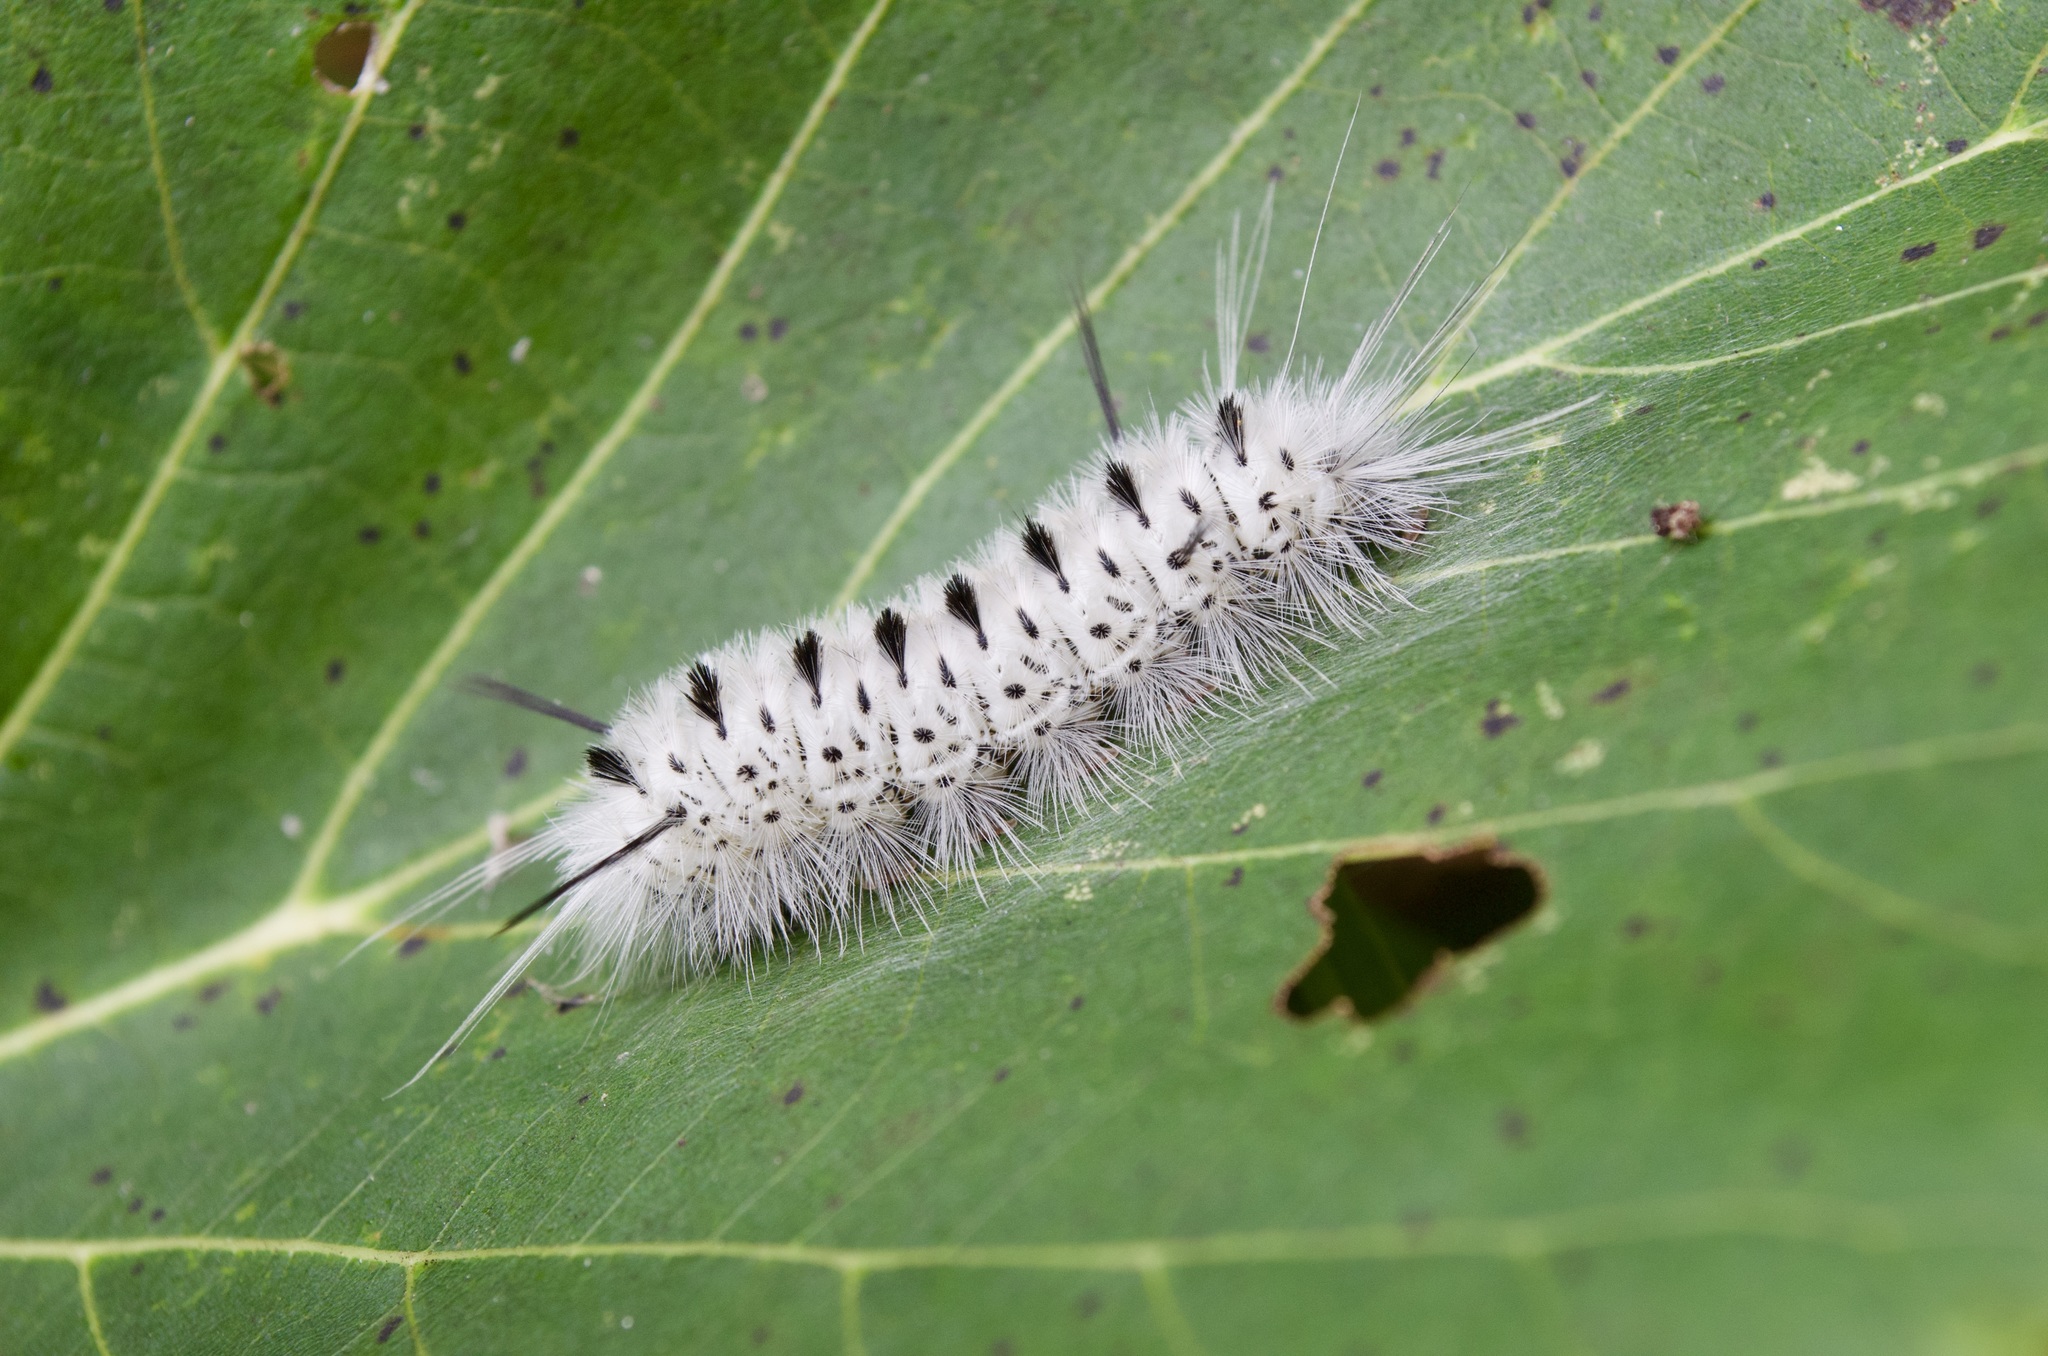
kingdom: Animalia
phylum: Arthropoda
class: Insecta
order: Lepidoptera
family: Erebidae
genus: Lophocampa
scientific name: Lophocampa caryae
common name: Hickory tussock moth
